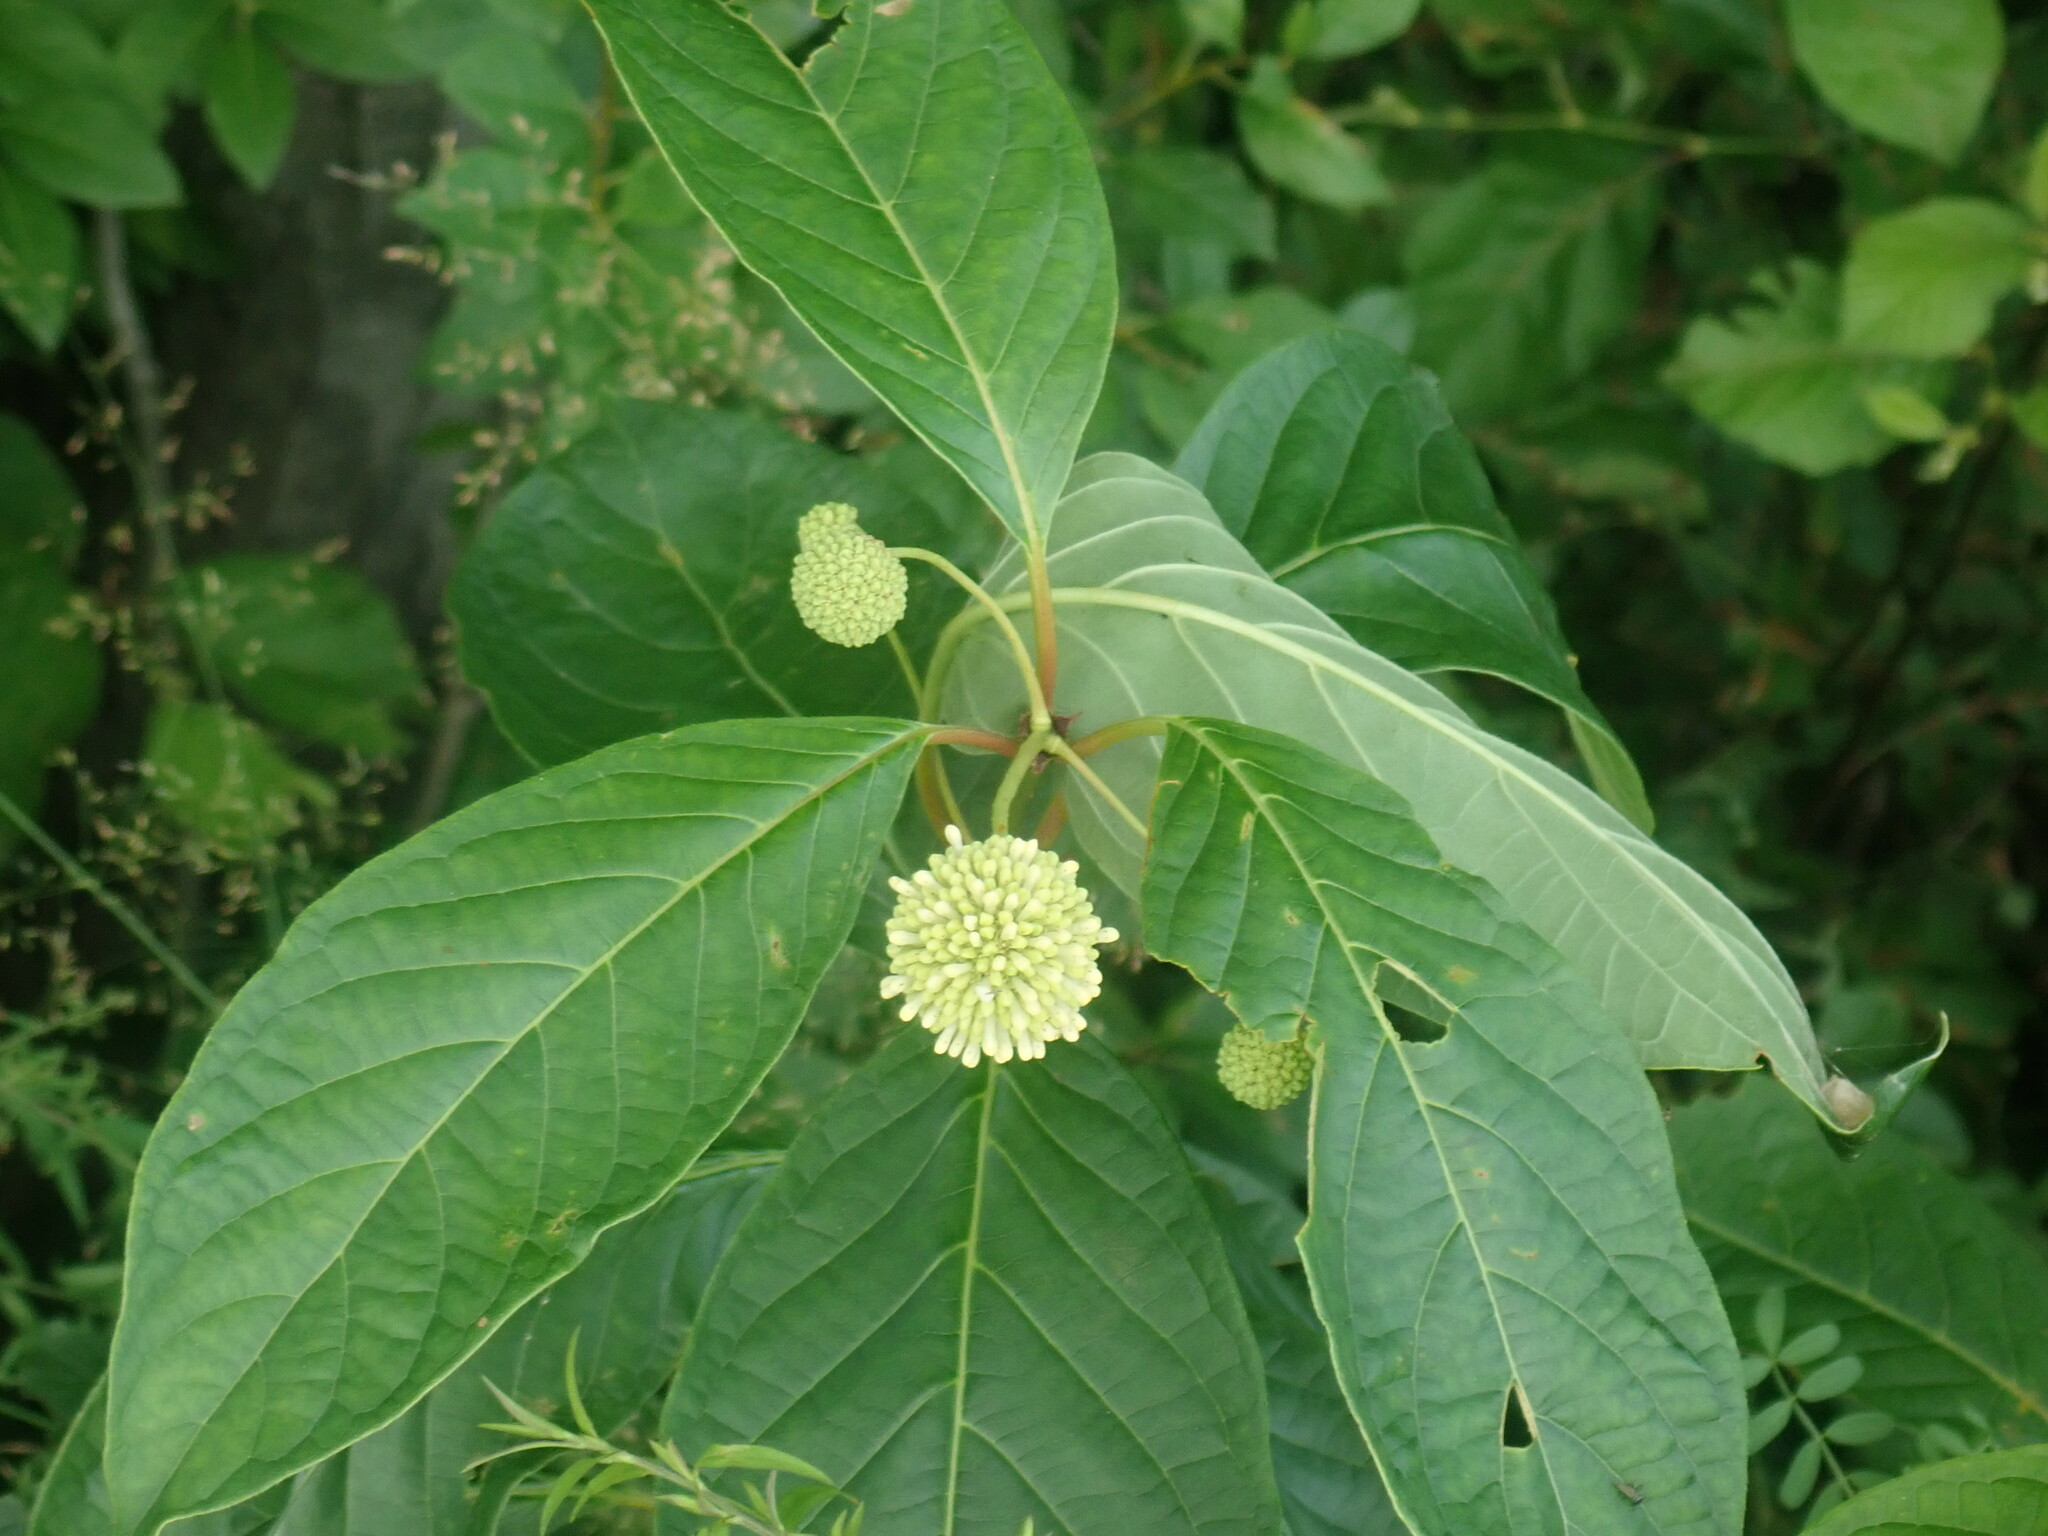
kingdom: Plantae
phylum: Tracheophyta
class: Magnoliopsida
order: Gentianales
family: Rubiaceae
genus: Cephalanthus
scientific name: Cephalanthus occidentalis
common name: Button-willow
